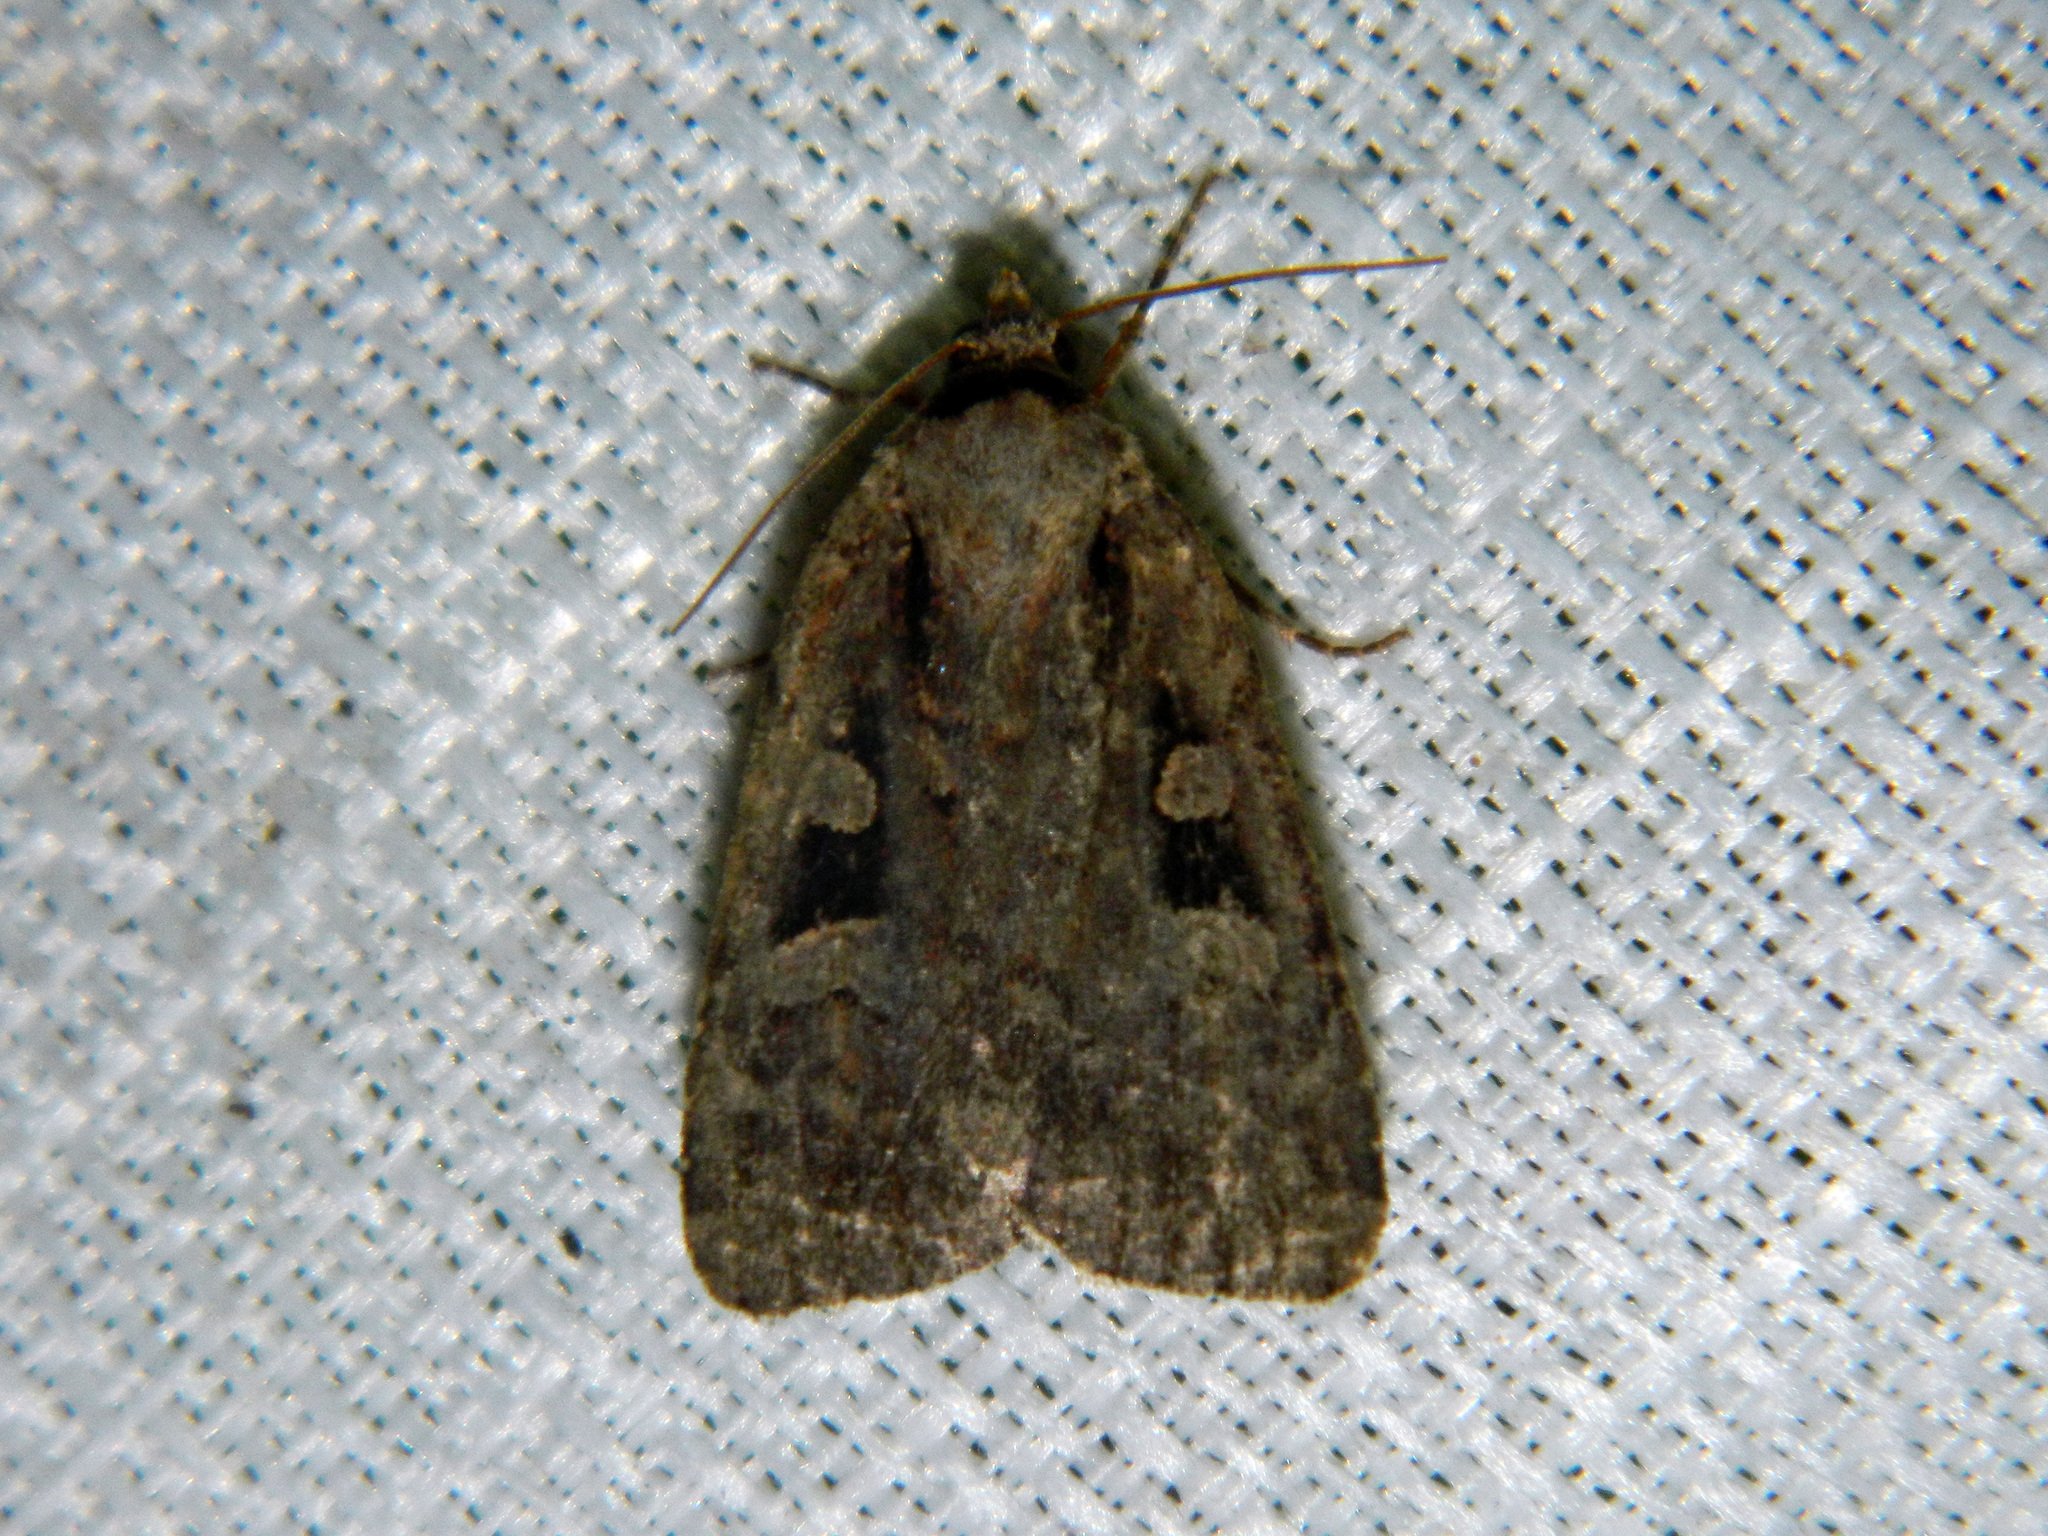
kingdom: Animalia
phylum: Arthropoda
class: Insecta
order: Lepidoptera
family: Noctuidae
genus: Eueretagrotis
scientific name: Eueretagrotis perattentus
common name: Two-spot dart moth
